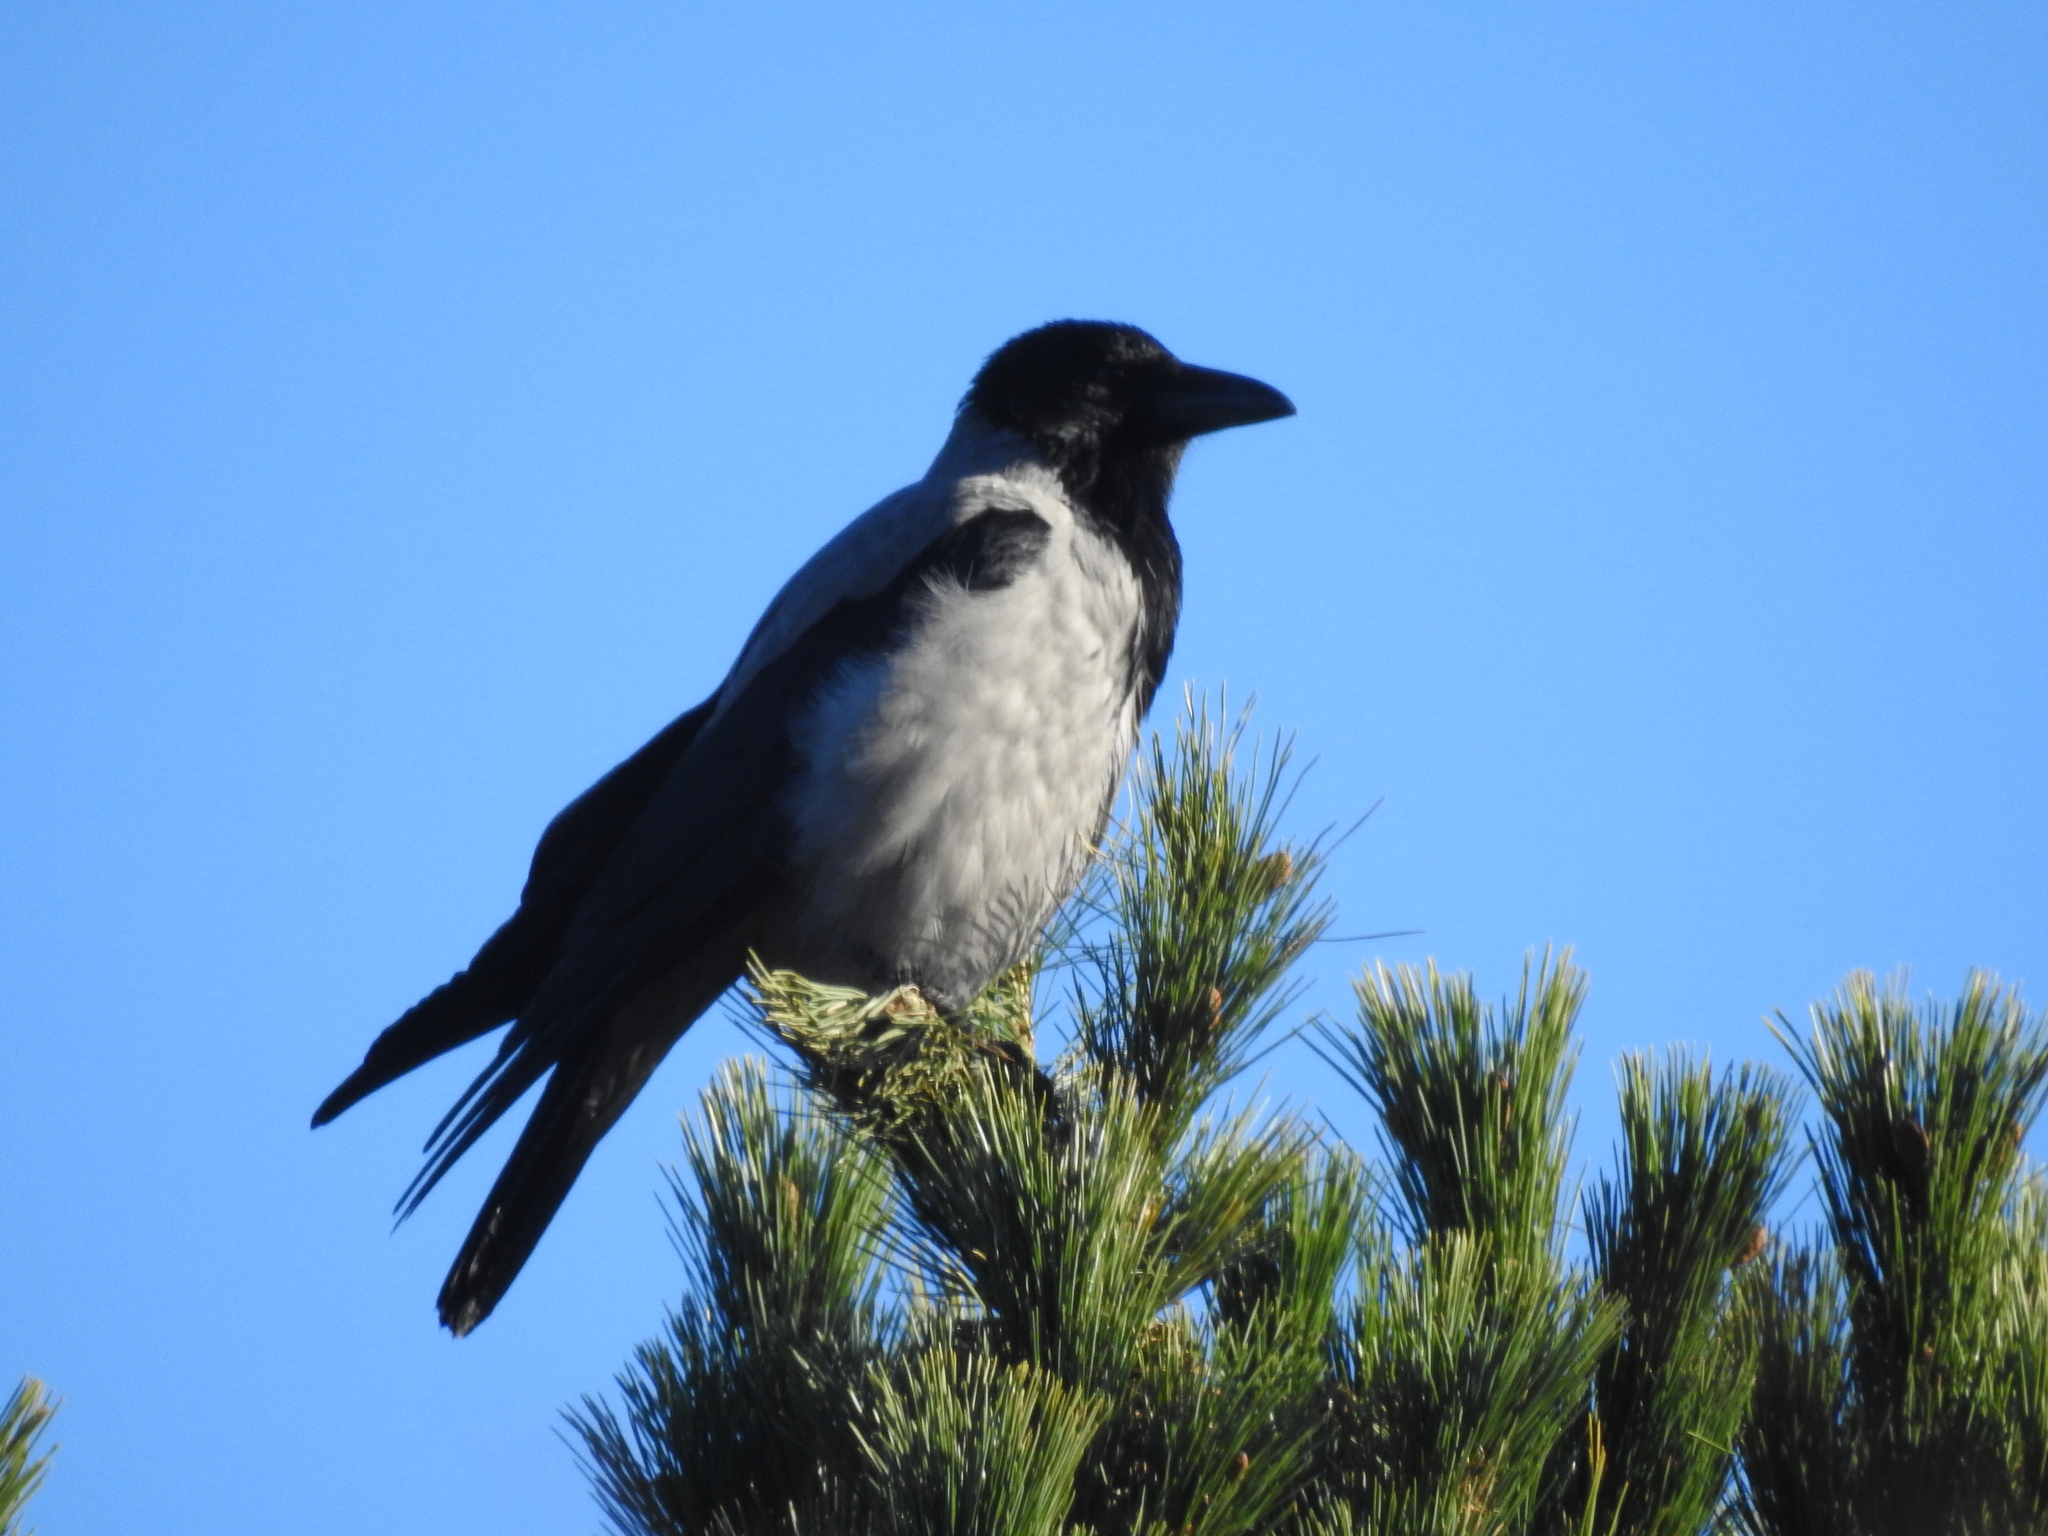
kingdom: Animalia
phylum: Chordata
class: Aves
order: Passeriformes
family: Corvidae
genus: Corvus
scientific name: Corvus cornix
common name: Hooded crow
